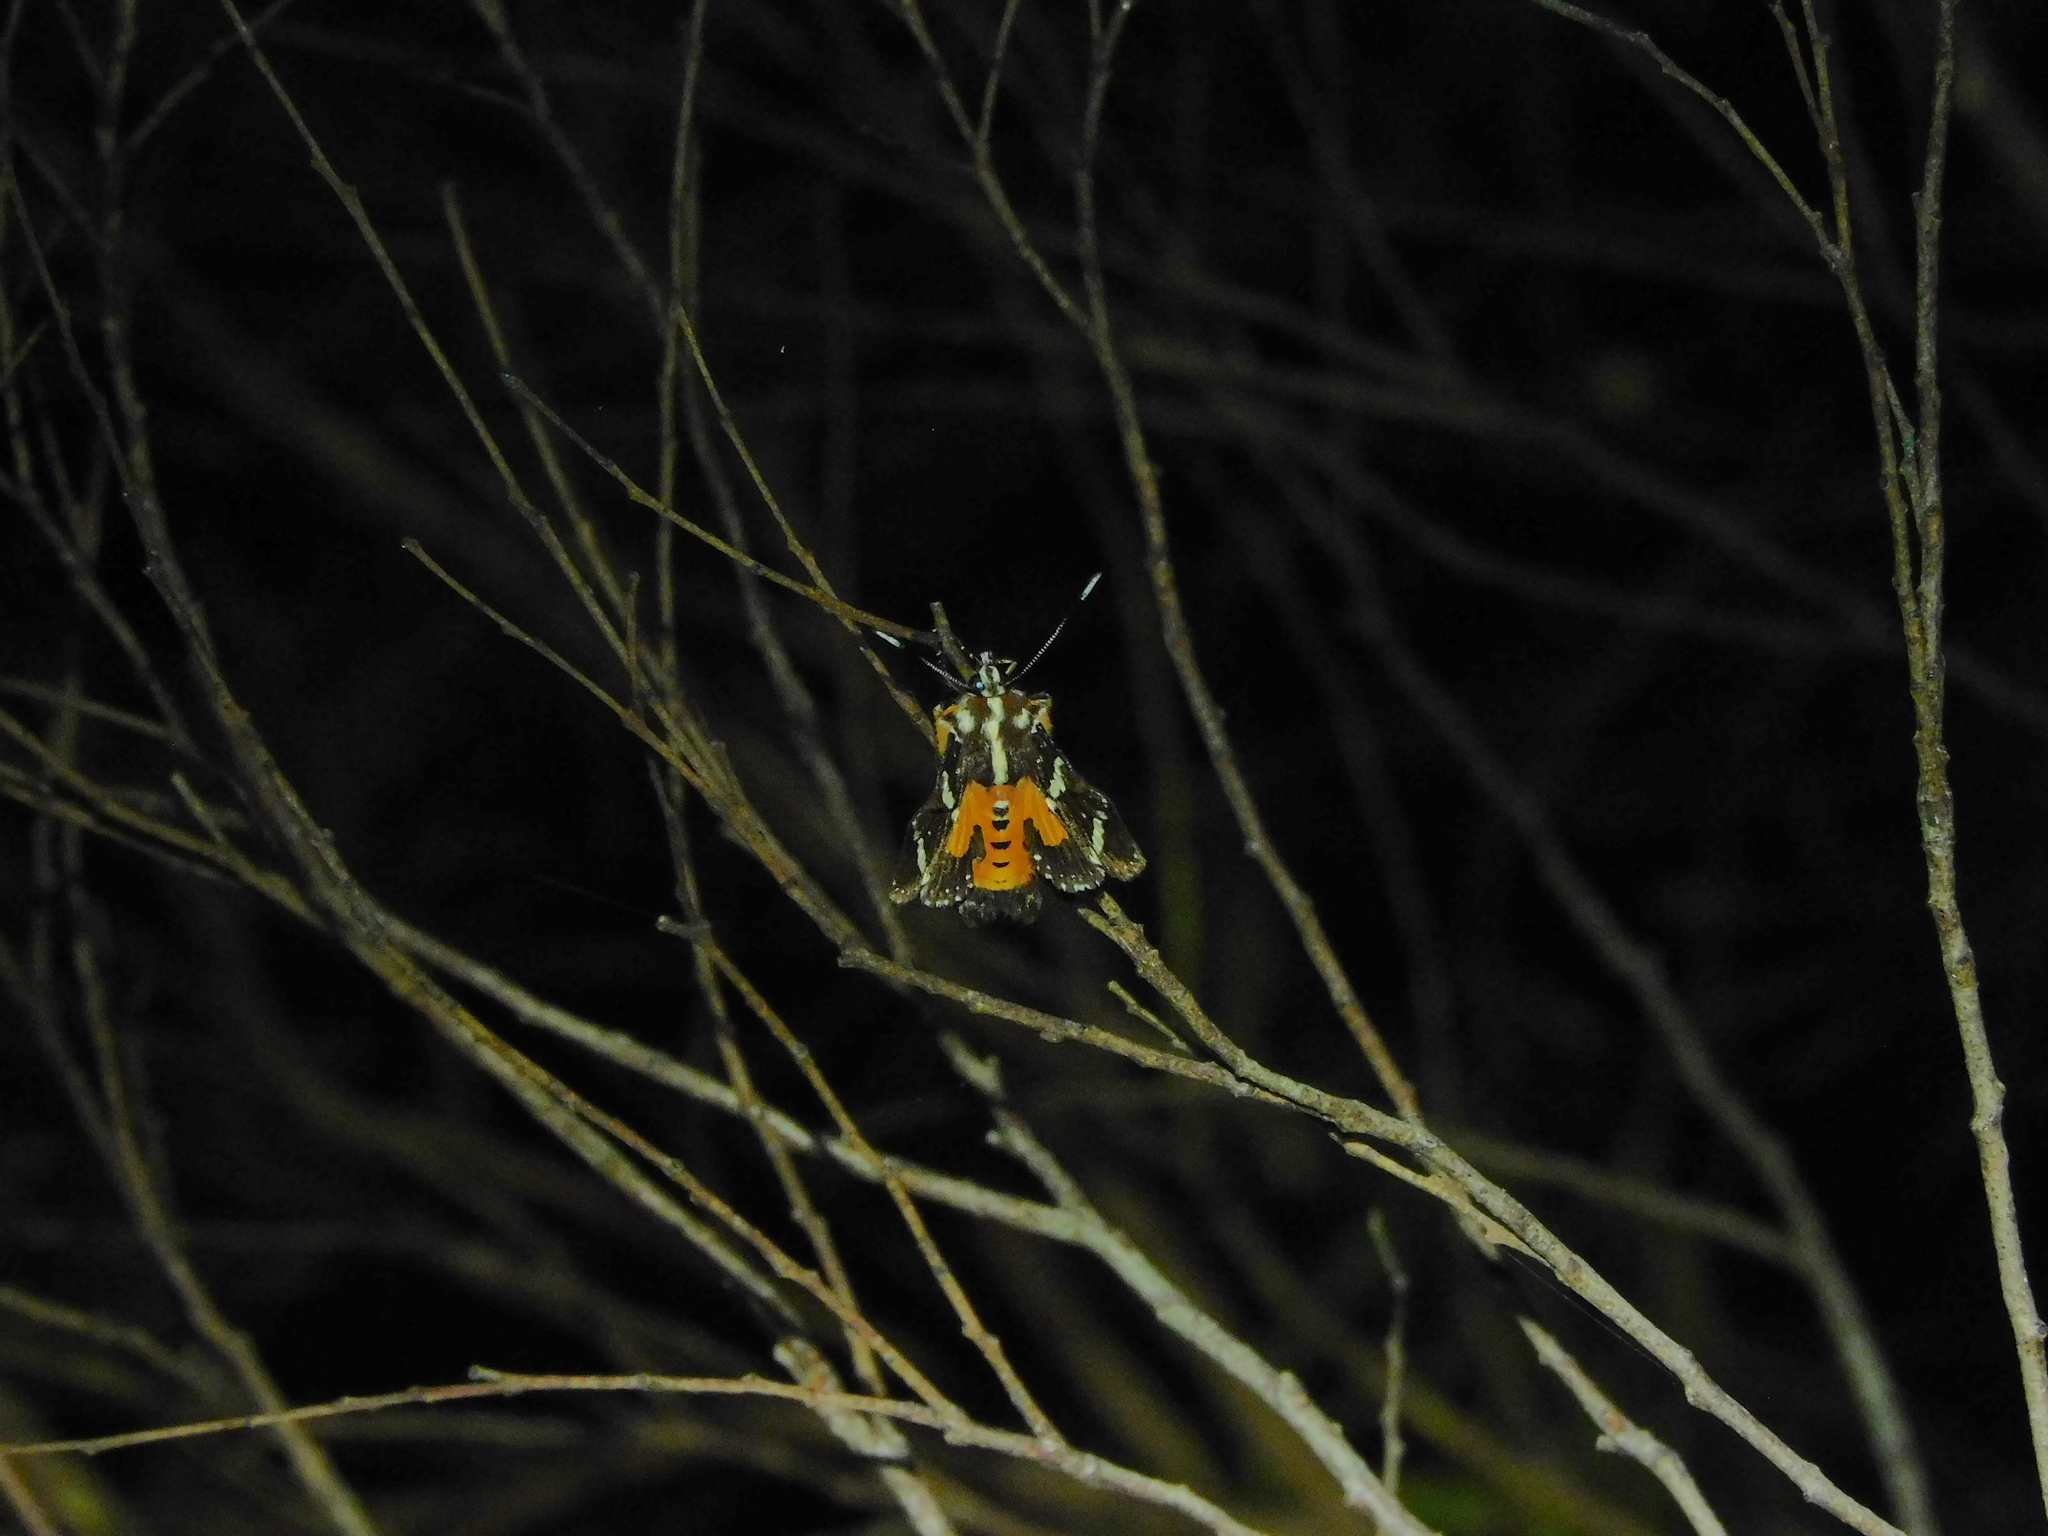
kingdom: Animalia
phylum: Arthropoda
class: Insecta
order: Lepidoptera
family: Noctuidae
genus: Hecatesia
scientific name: Hecatesia fenestrata
